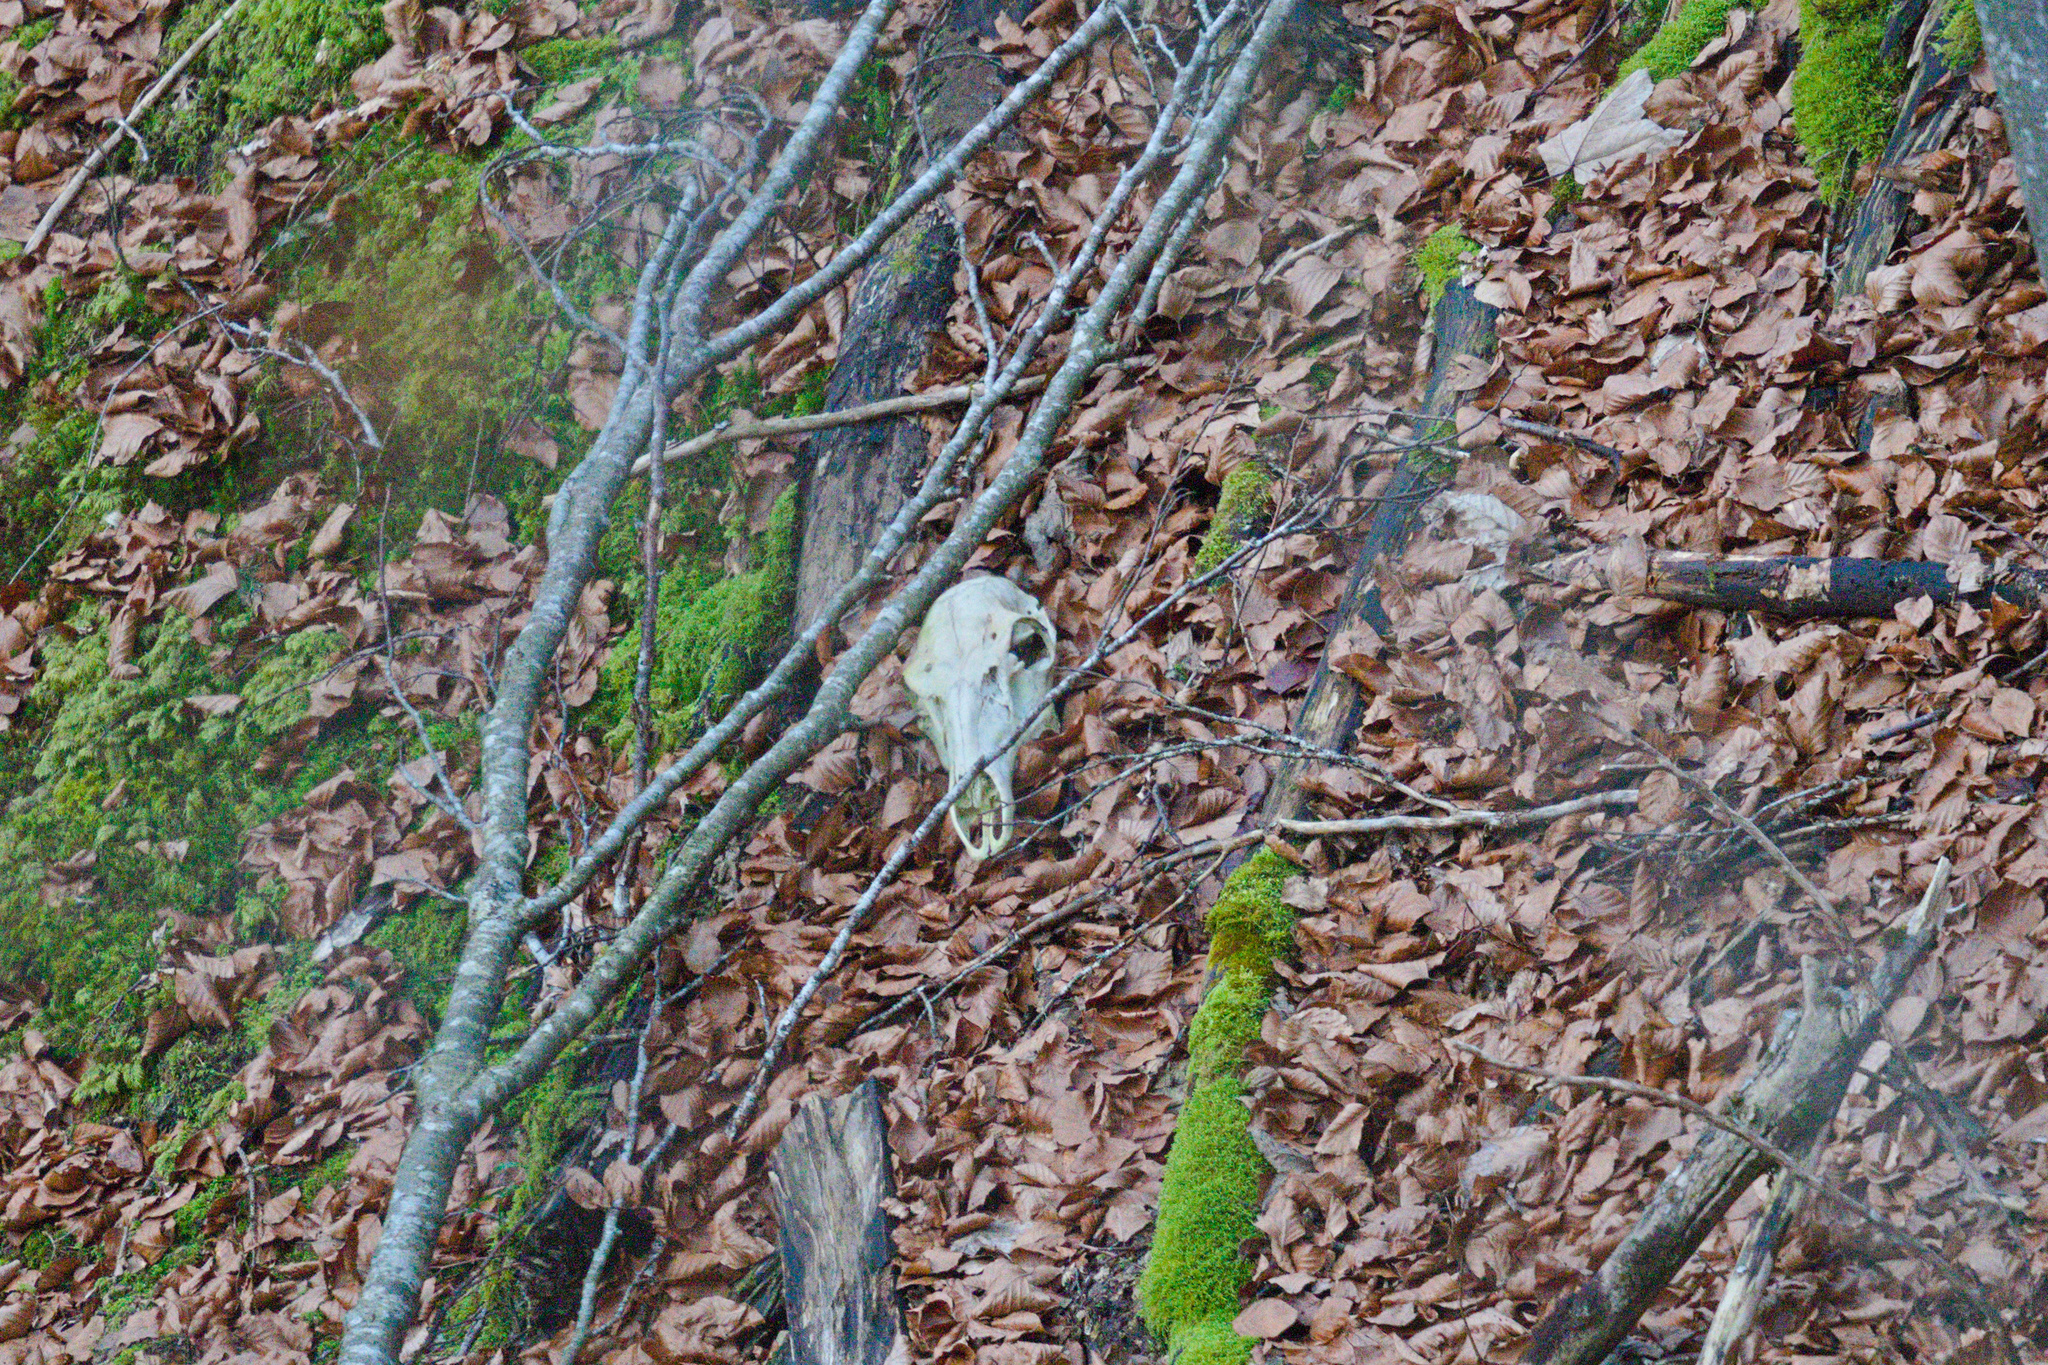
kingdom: Animalia
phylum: Chordata
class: Mammalia
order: Artiodactyla
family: Cervidae
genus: Cervus
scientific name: Cervus elaphus
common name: Red deer
